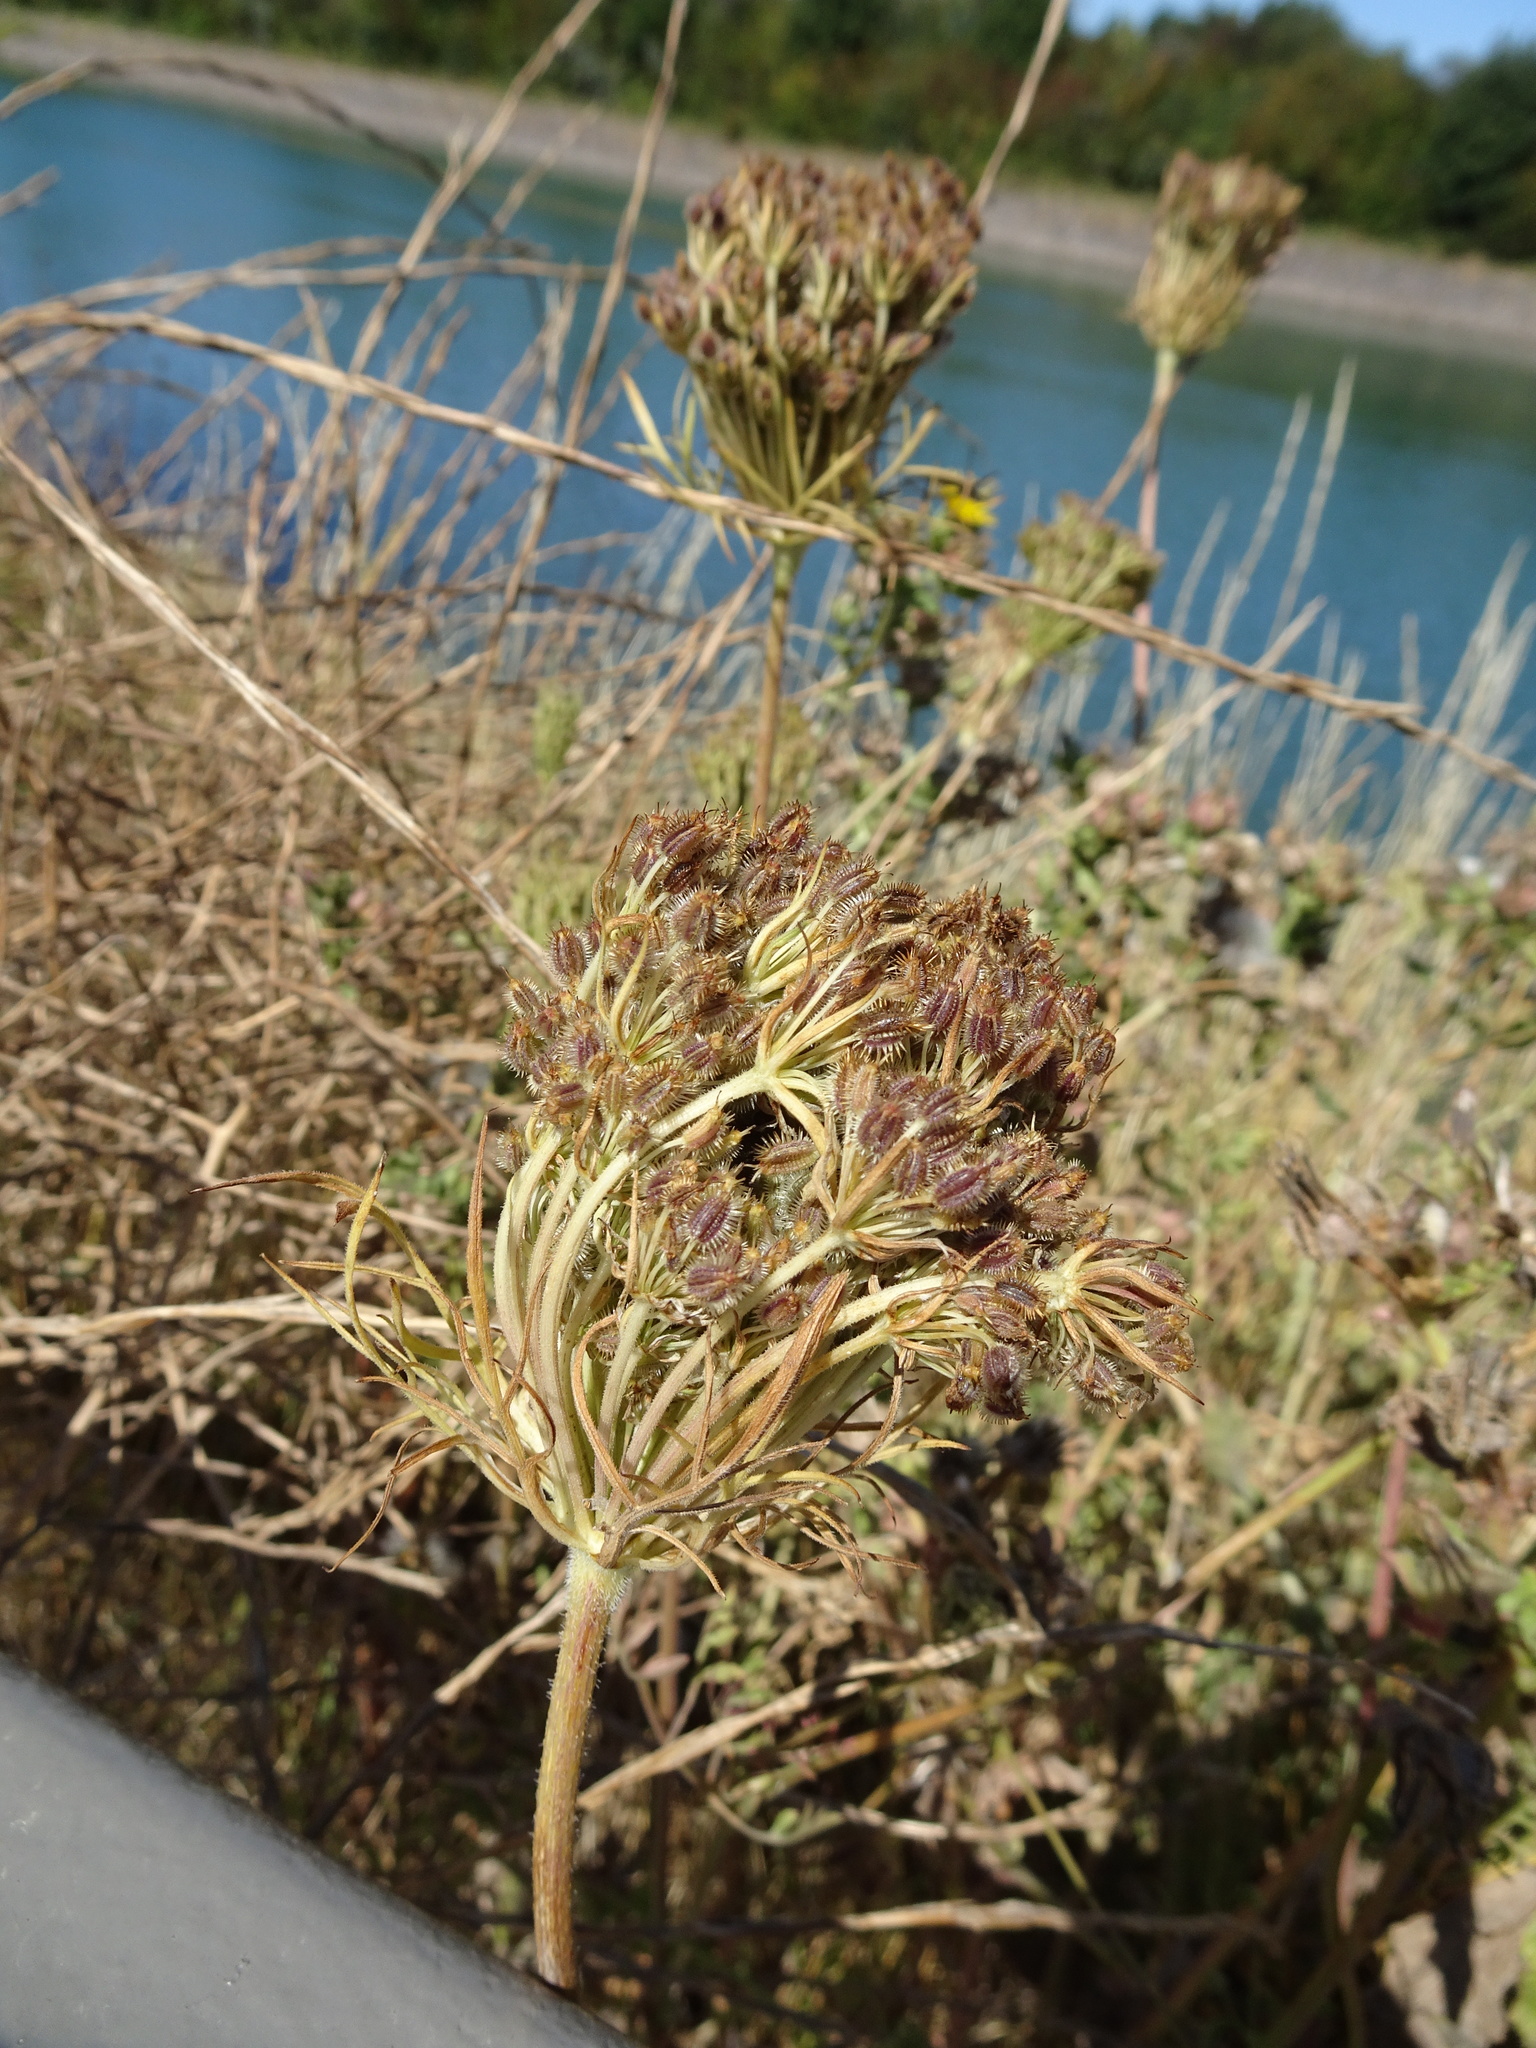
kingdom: Plantae
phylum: Tracheophyta
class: Magnoliopsida
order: Apiales
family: Apiaceae
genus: Daucus
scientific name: Daucus carota
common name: Wild carrot
